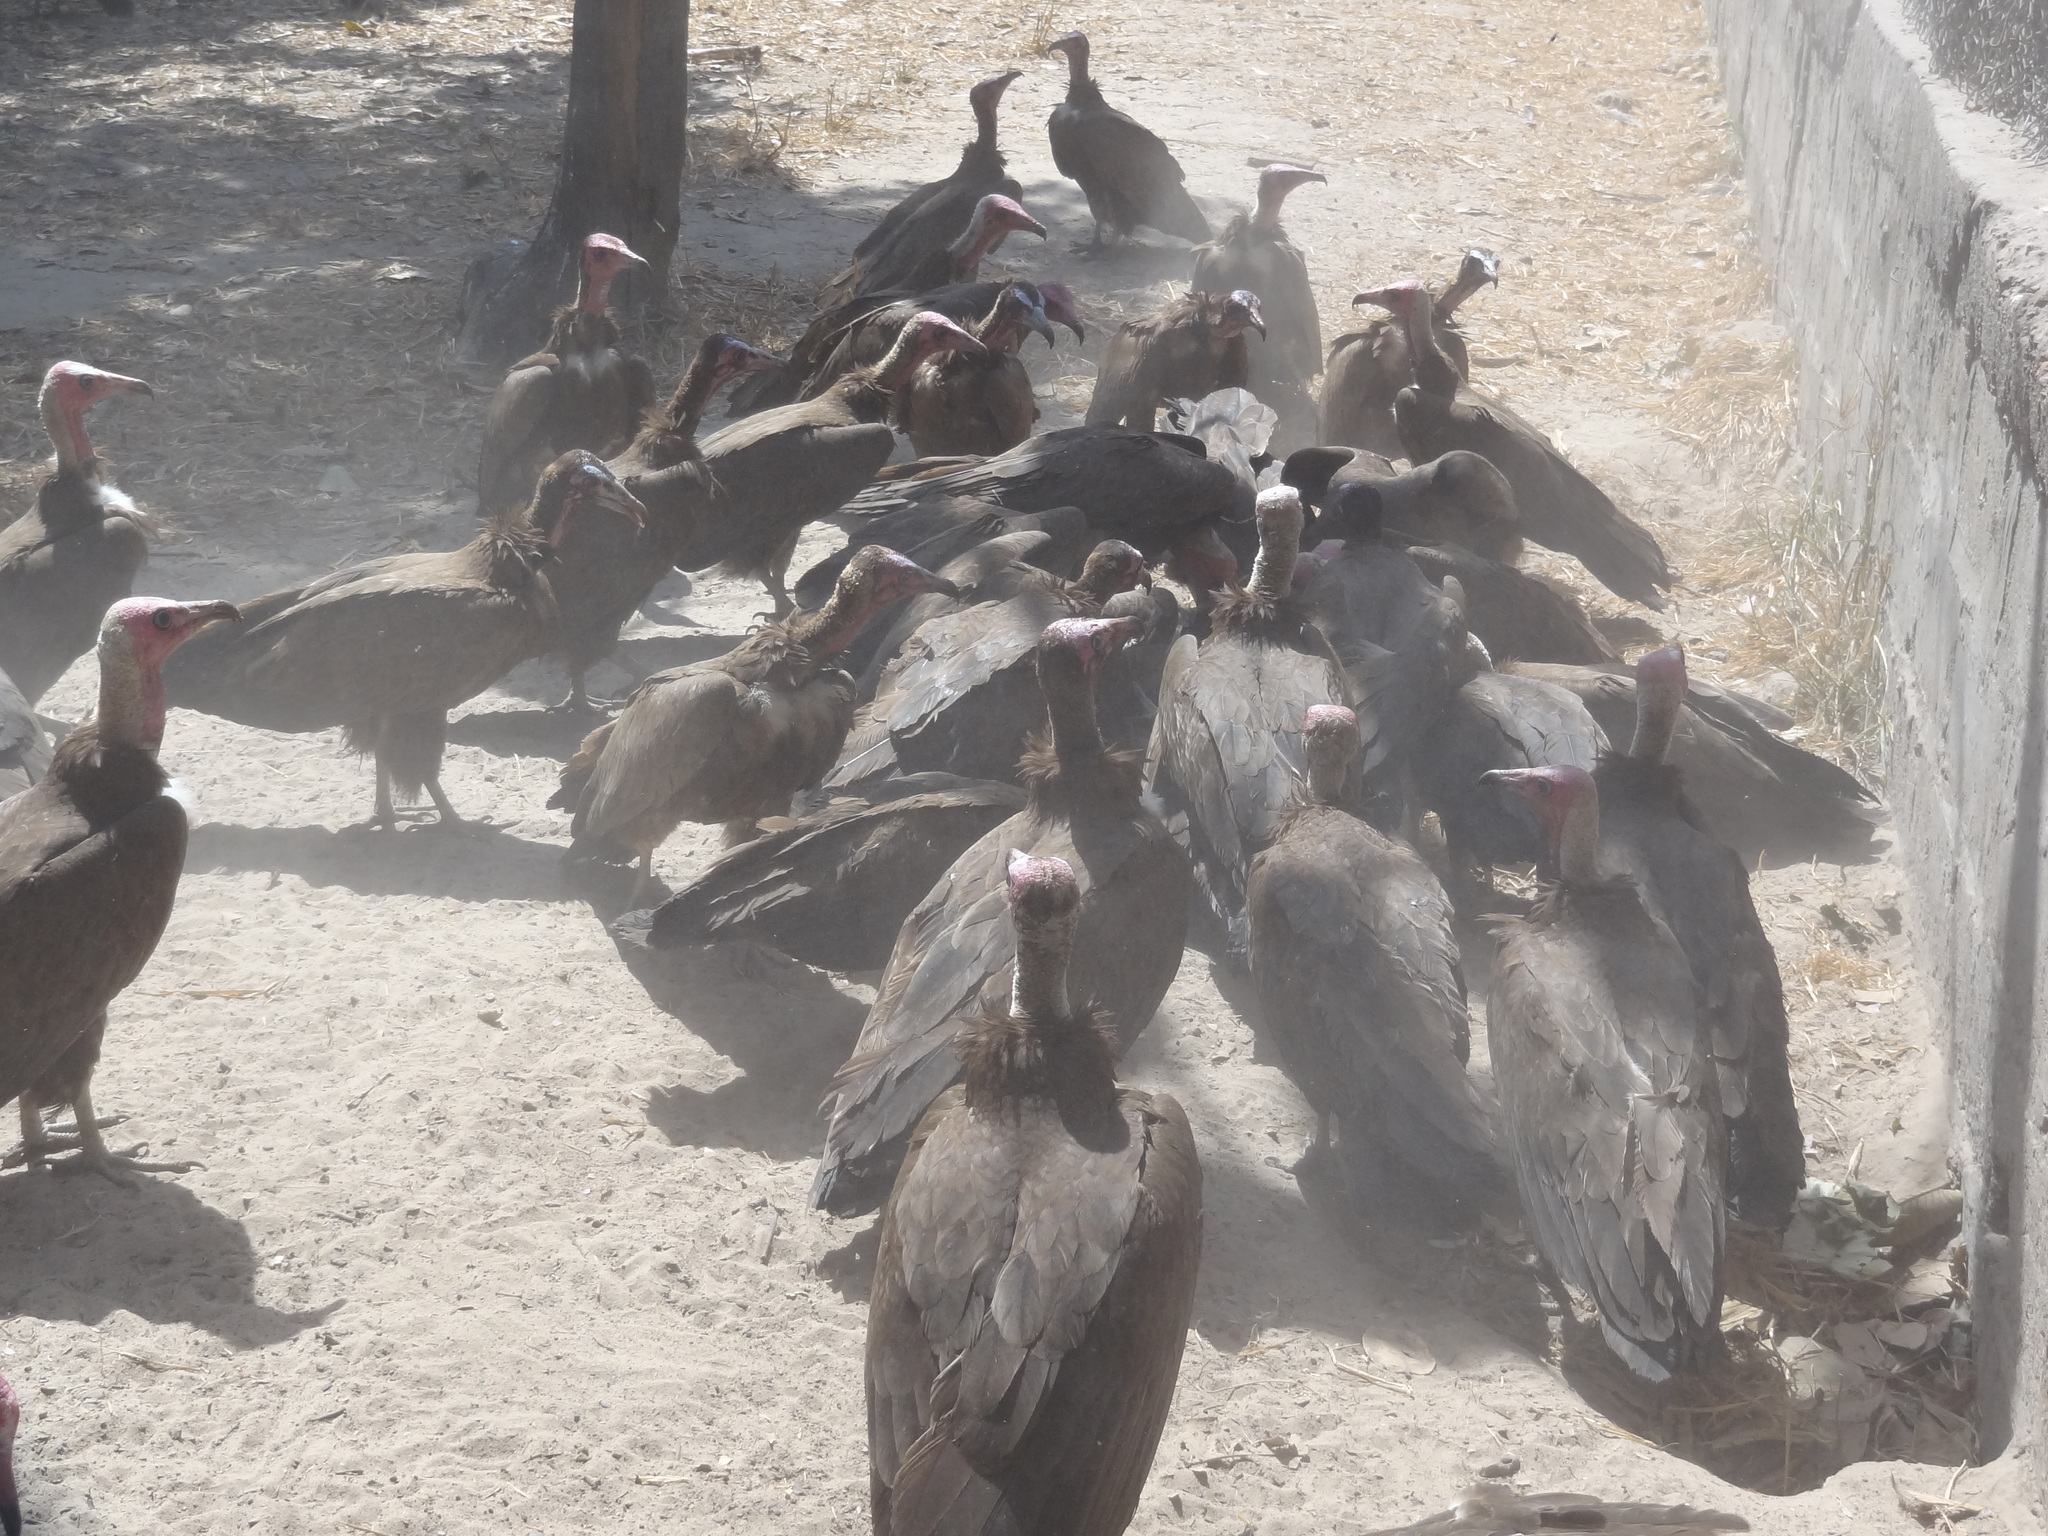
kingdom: Animalia
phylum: Chordata
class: Aves
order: Accipitriformes
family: Accipitridae
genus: Necrosyrtes
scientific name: Necrosyrtes monachus
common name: Hooded vulture
